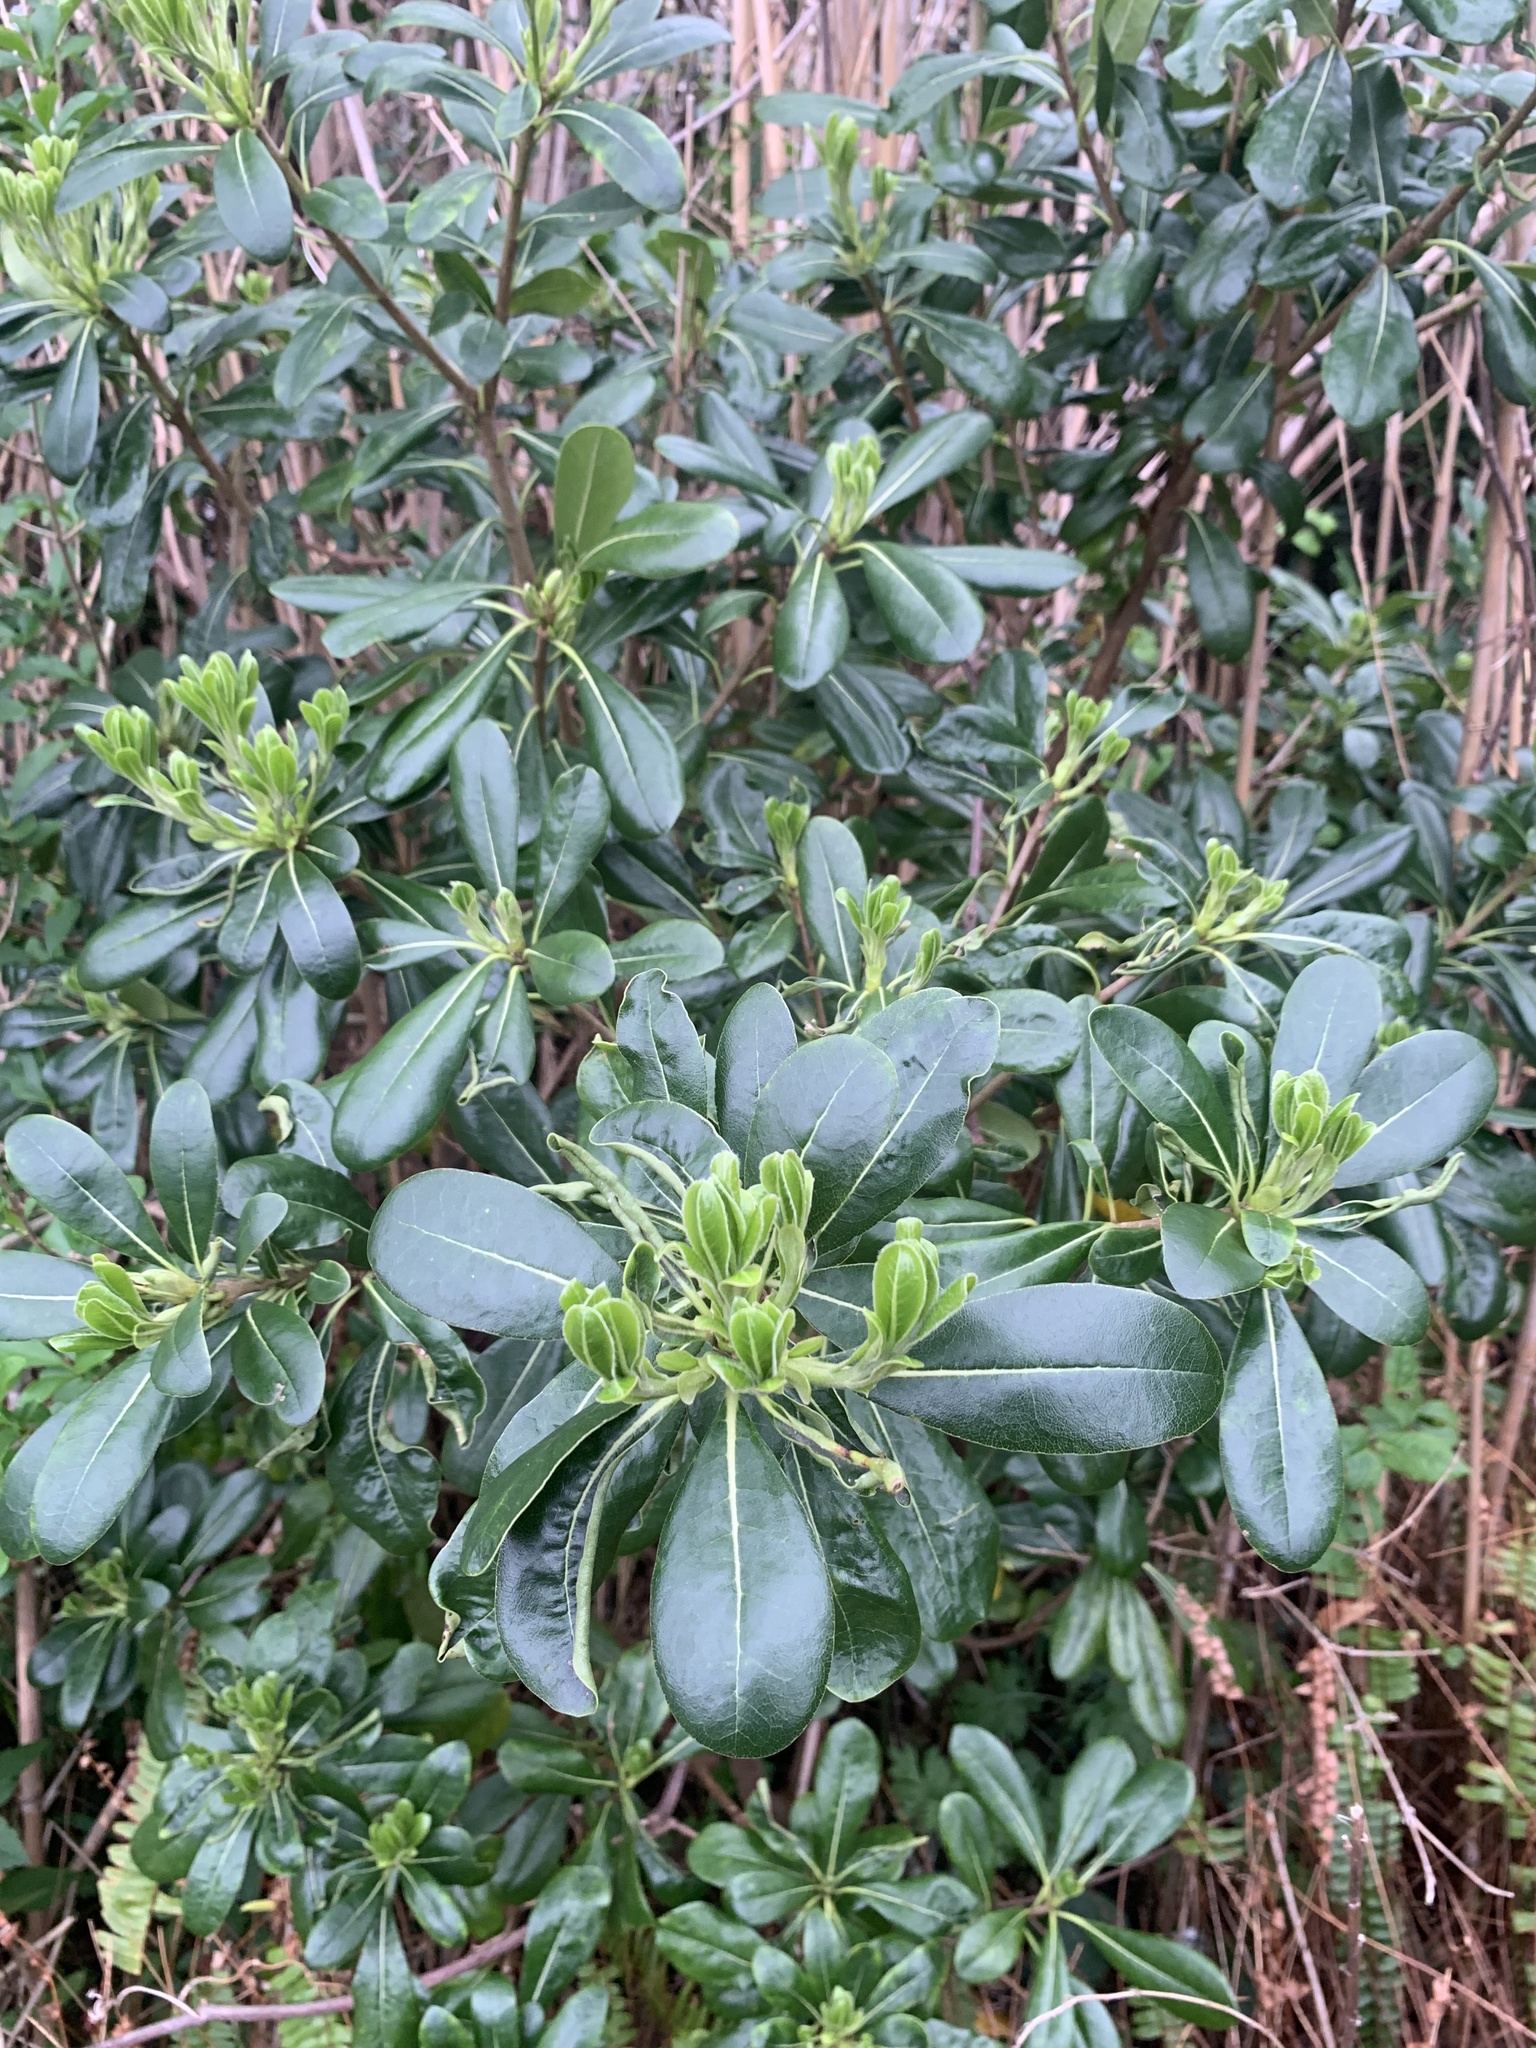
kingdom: Plantae
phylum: Tracheophyta
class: Magnoliopsida
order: Apiales
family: Pittosporaceae
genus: Pittosporum
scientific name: Pittosporum tobira
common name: Japanese cheesewood
